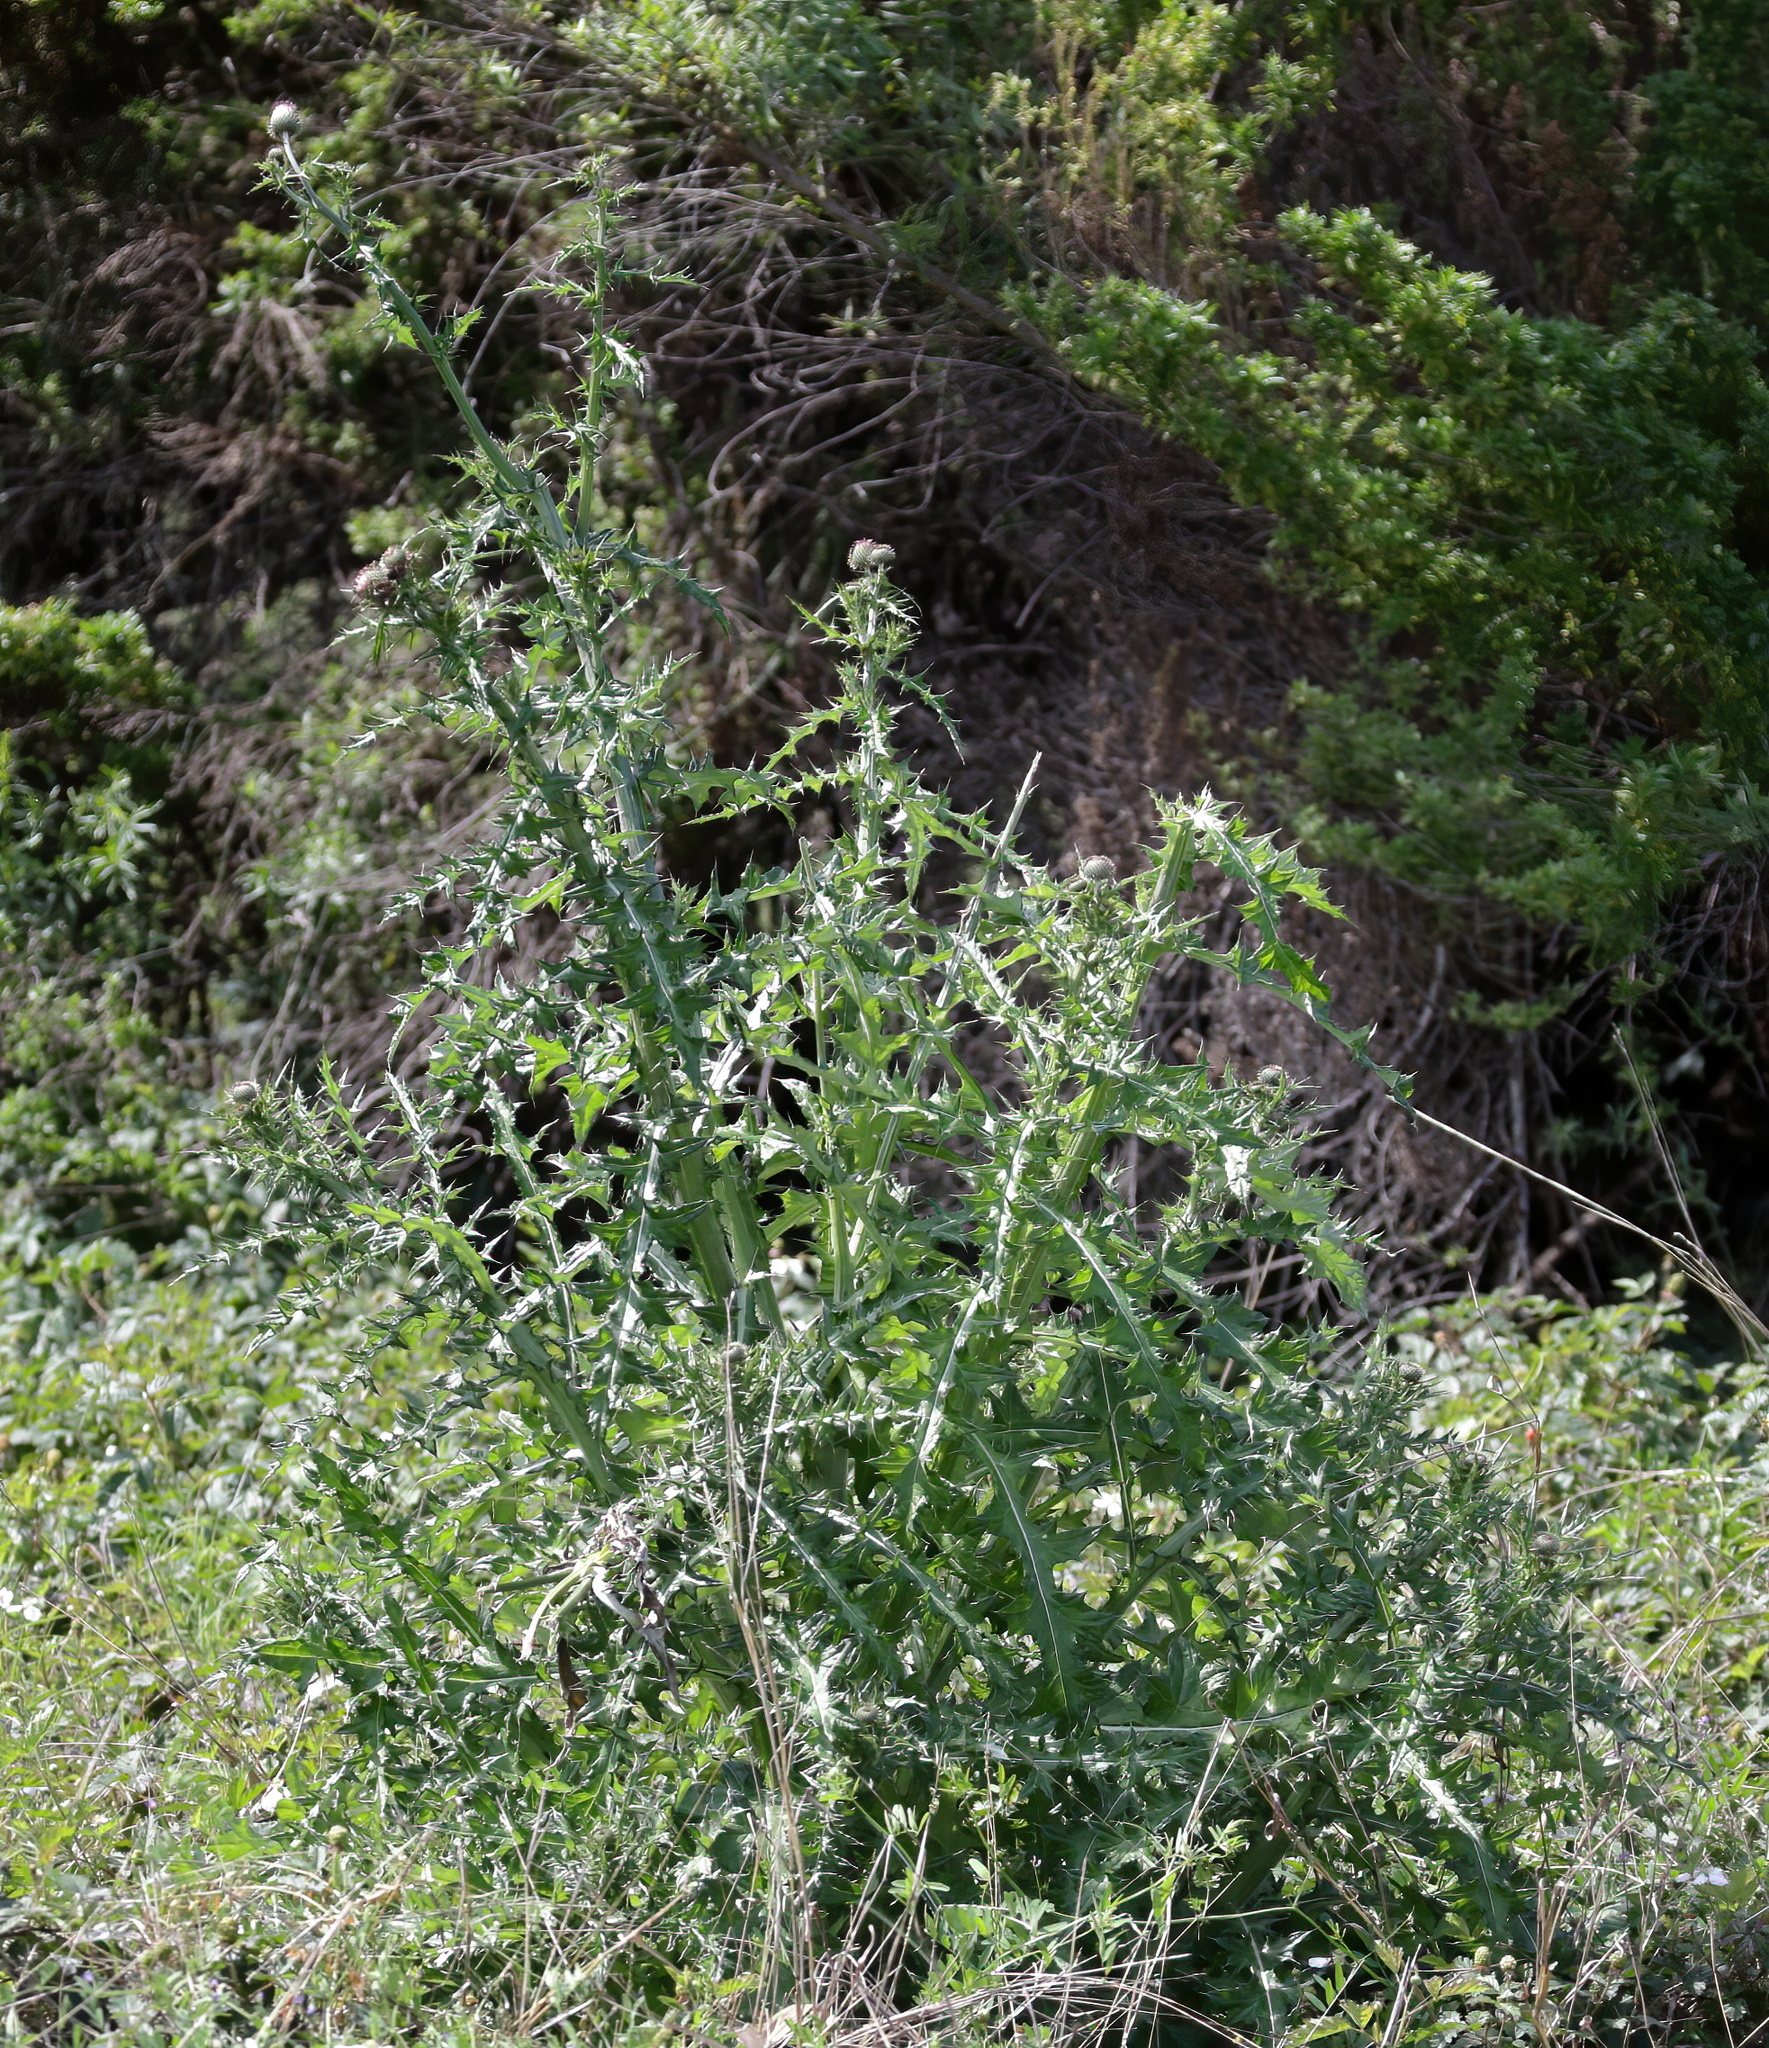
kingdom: Plantae
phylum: Tracheophyta
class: Magnoliopsida
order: Asterales
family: Asteraceae
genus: Cirsium
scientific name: Cirsium texanum
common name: Texas purple thistle
